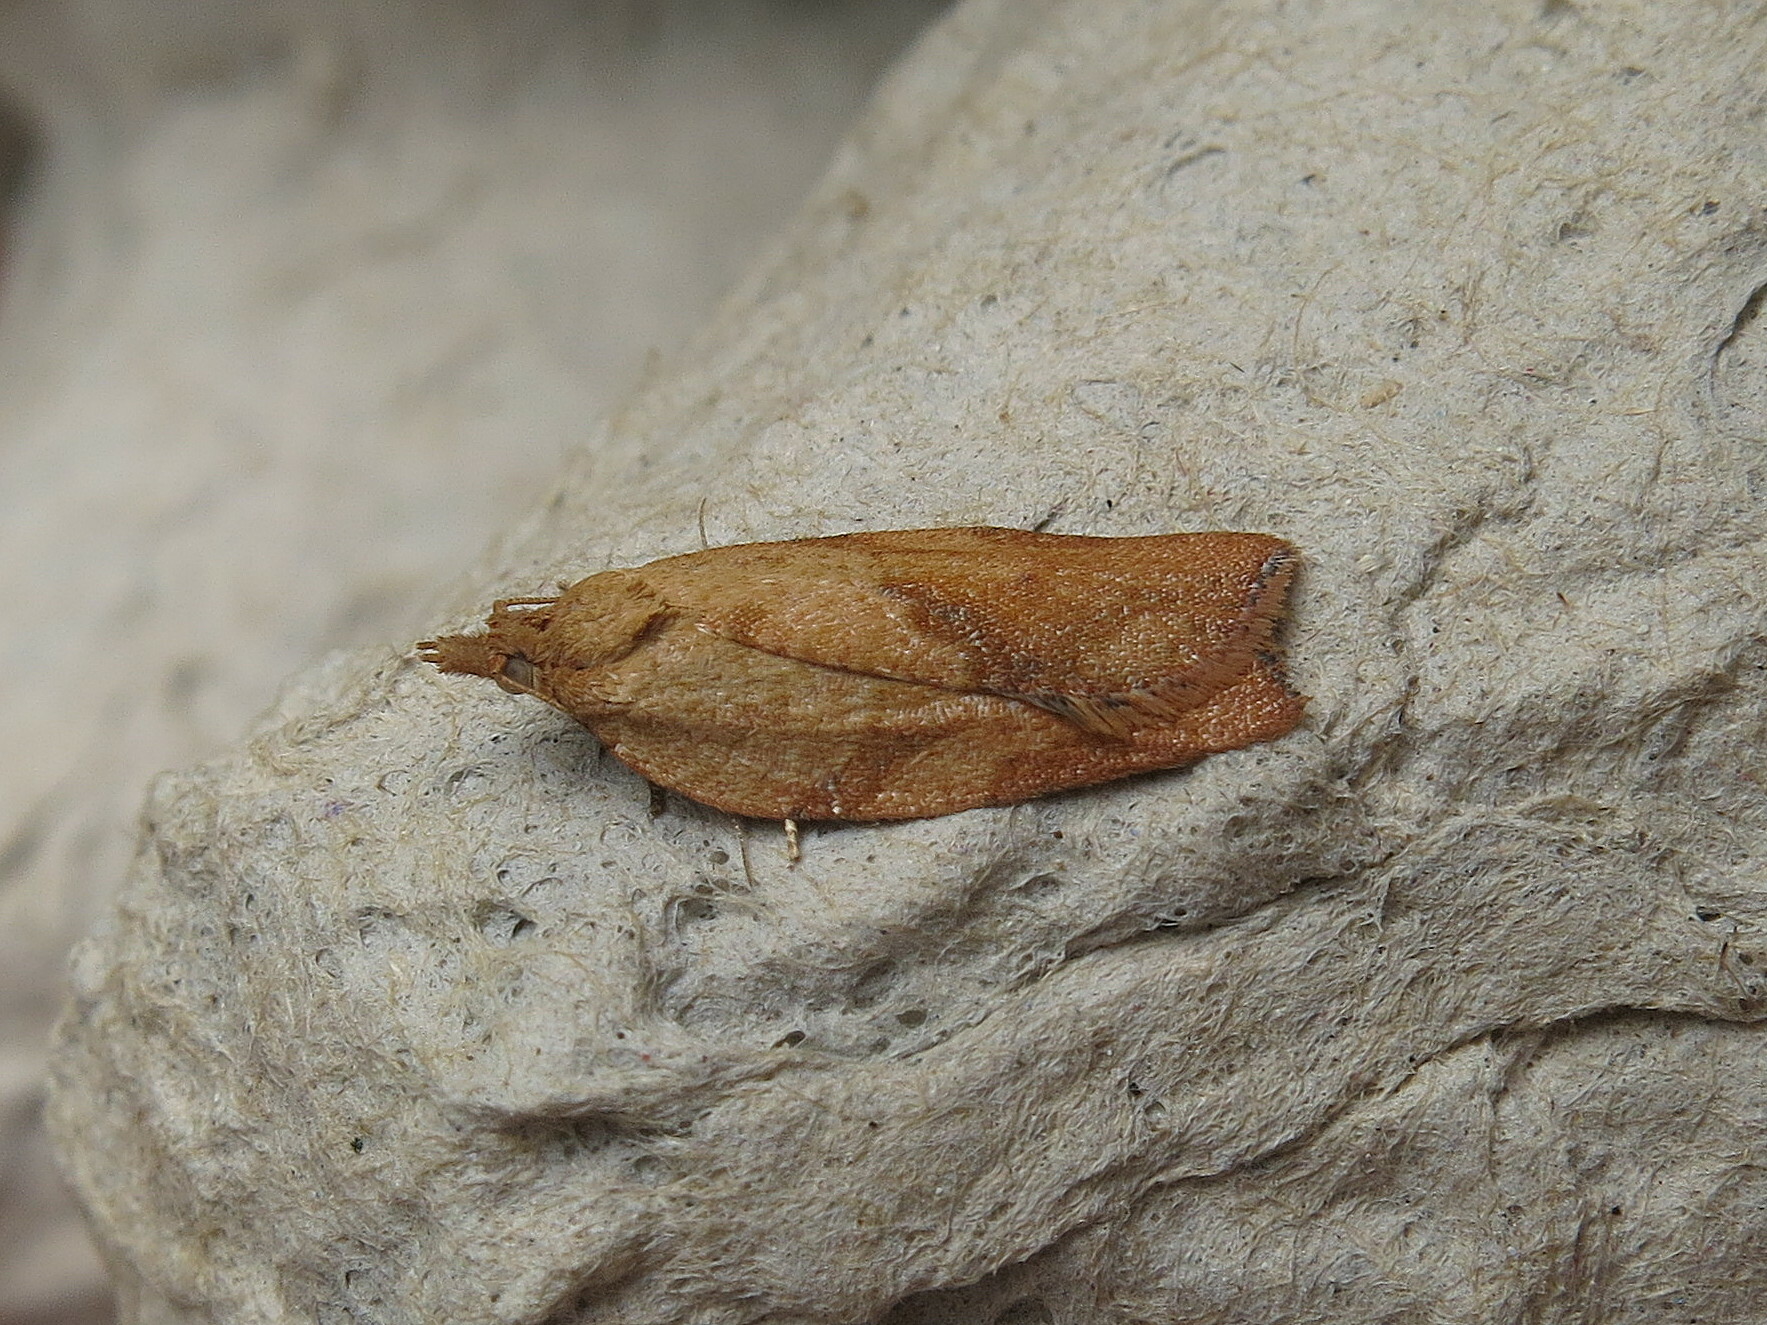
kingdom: Animalia
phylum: Arthropoda
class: Insecta
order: Lepidoptera
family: Tortricidae
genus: Epiphyas
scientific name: Epiphyas postvittana
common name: Light brown apple moth
